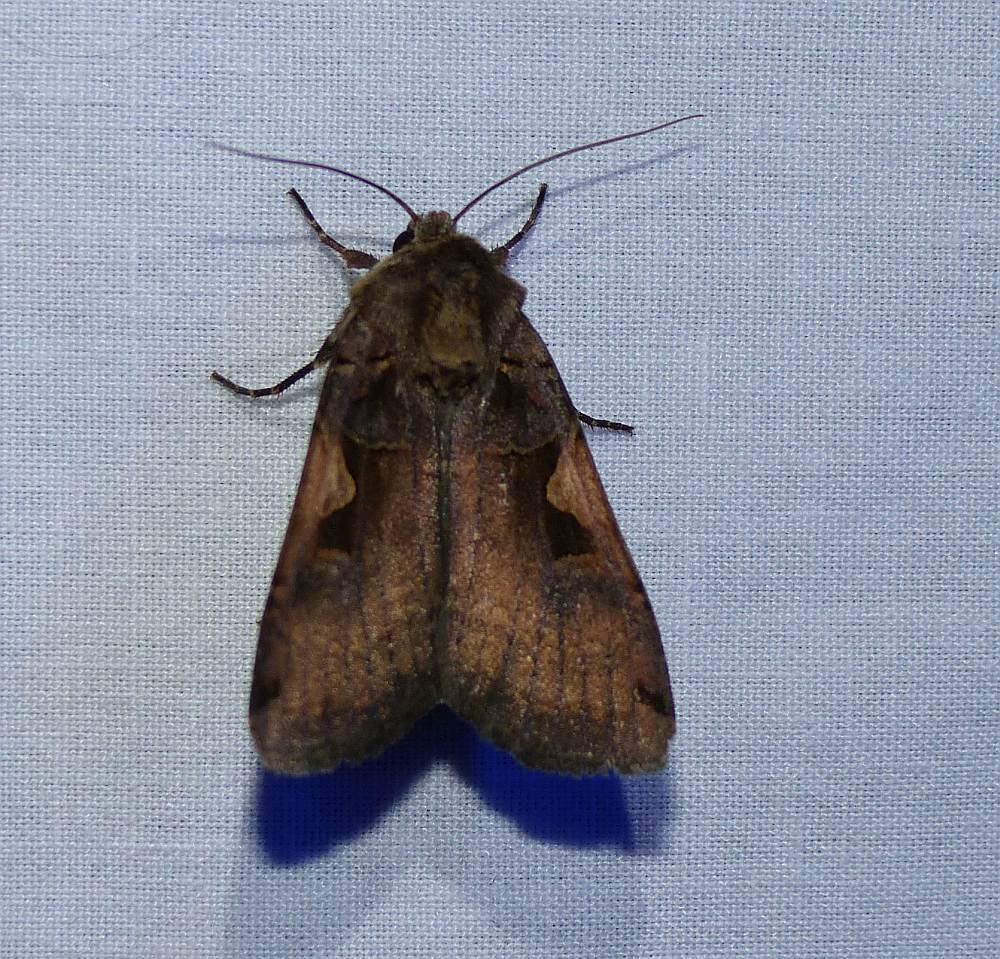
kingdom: Animalia
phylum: Arthropoda
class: Insecta
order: Lepidoptera
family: Noctuidae
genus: Xestia
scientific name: Xestia
